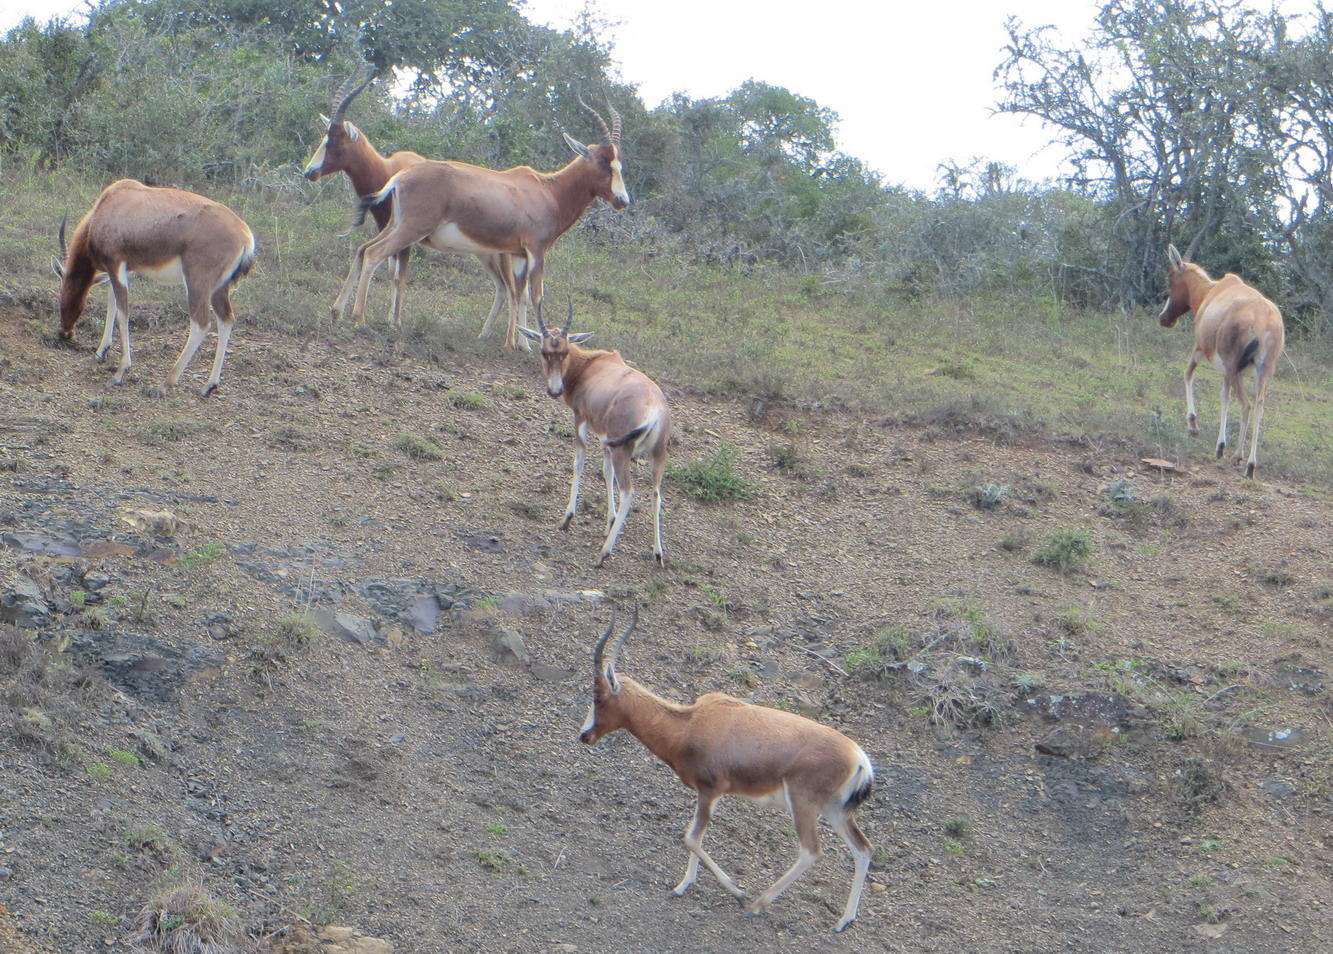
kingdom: Animalia
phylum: Chordata
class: Mammalia
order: Artiodactyla
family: Bovidae
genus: Damaliscus
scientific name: Damaliscus pygargus
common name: Bontebok
